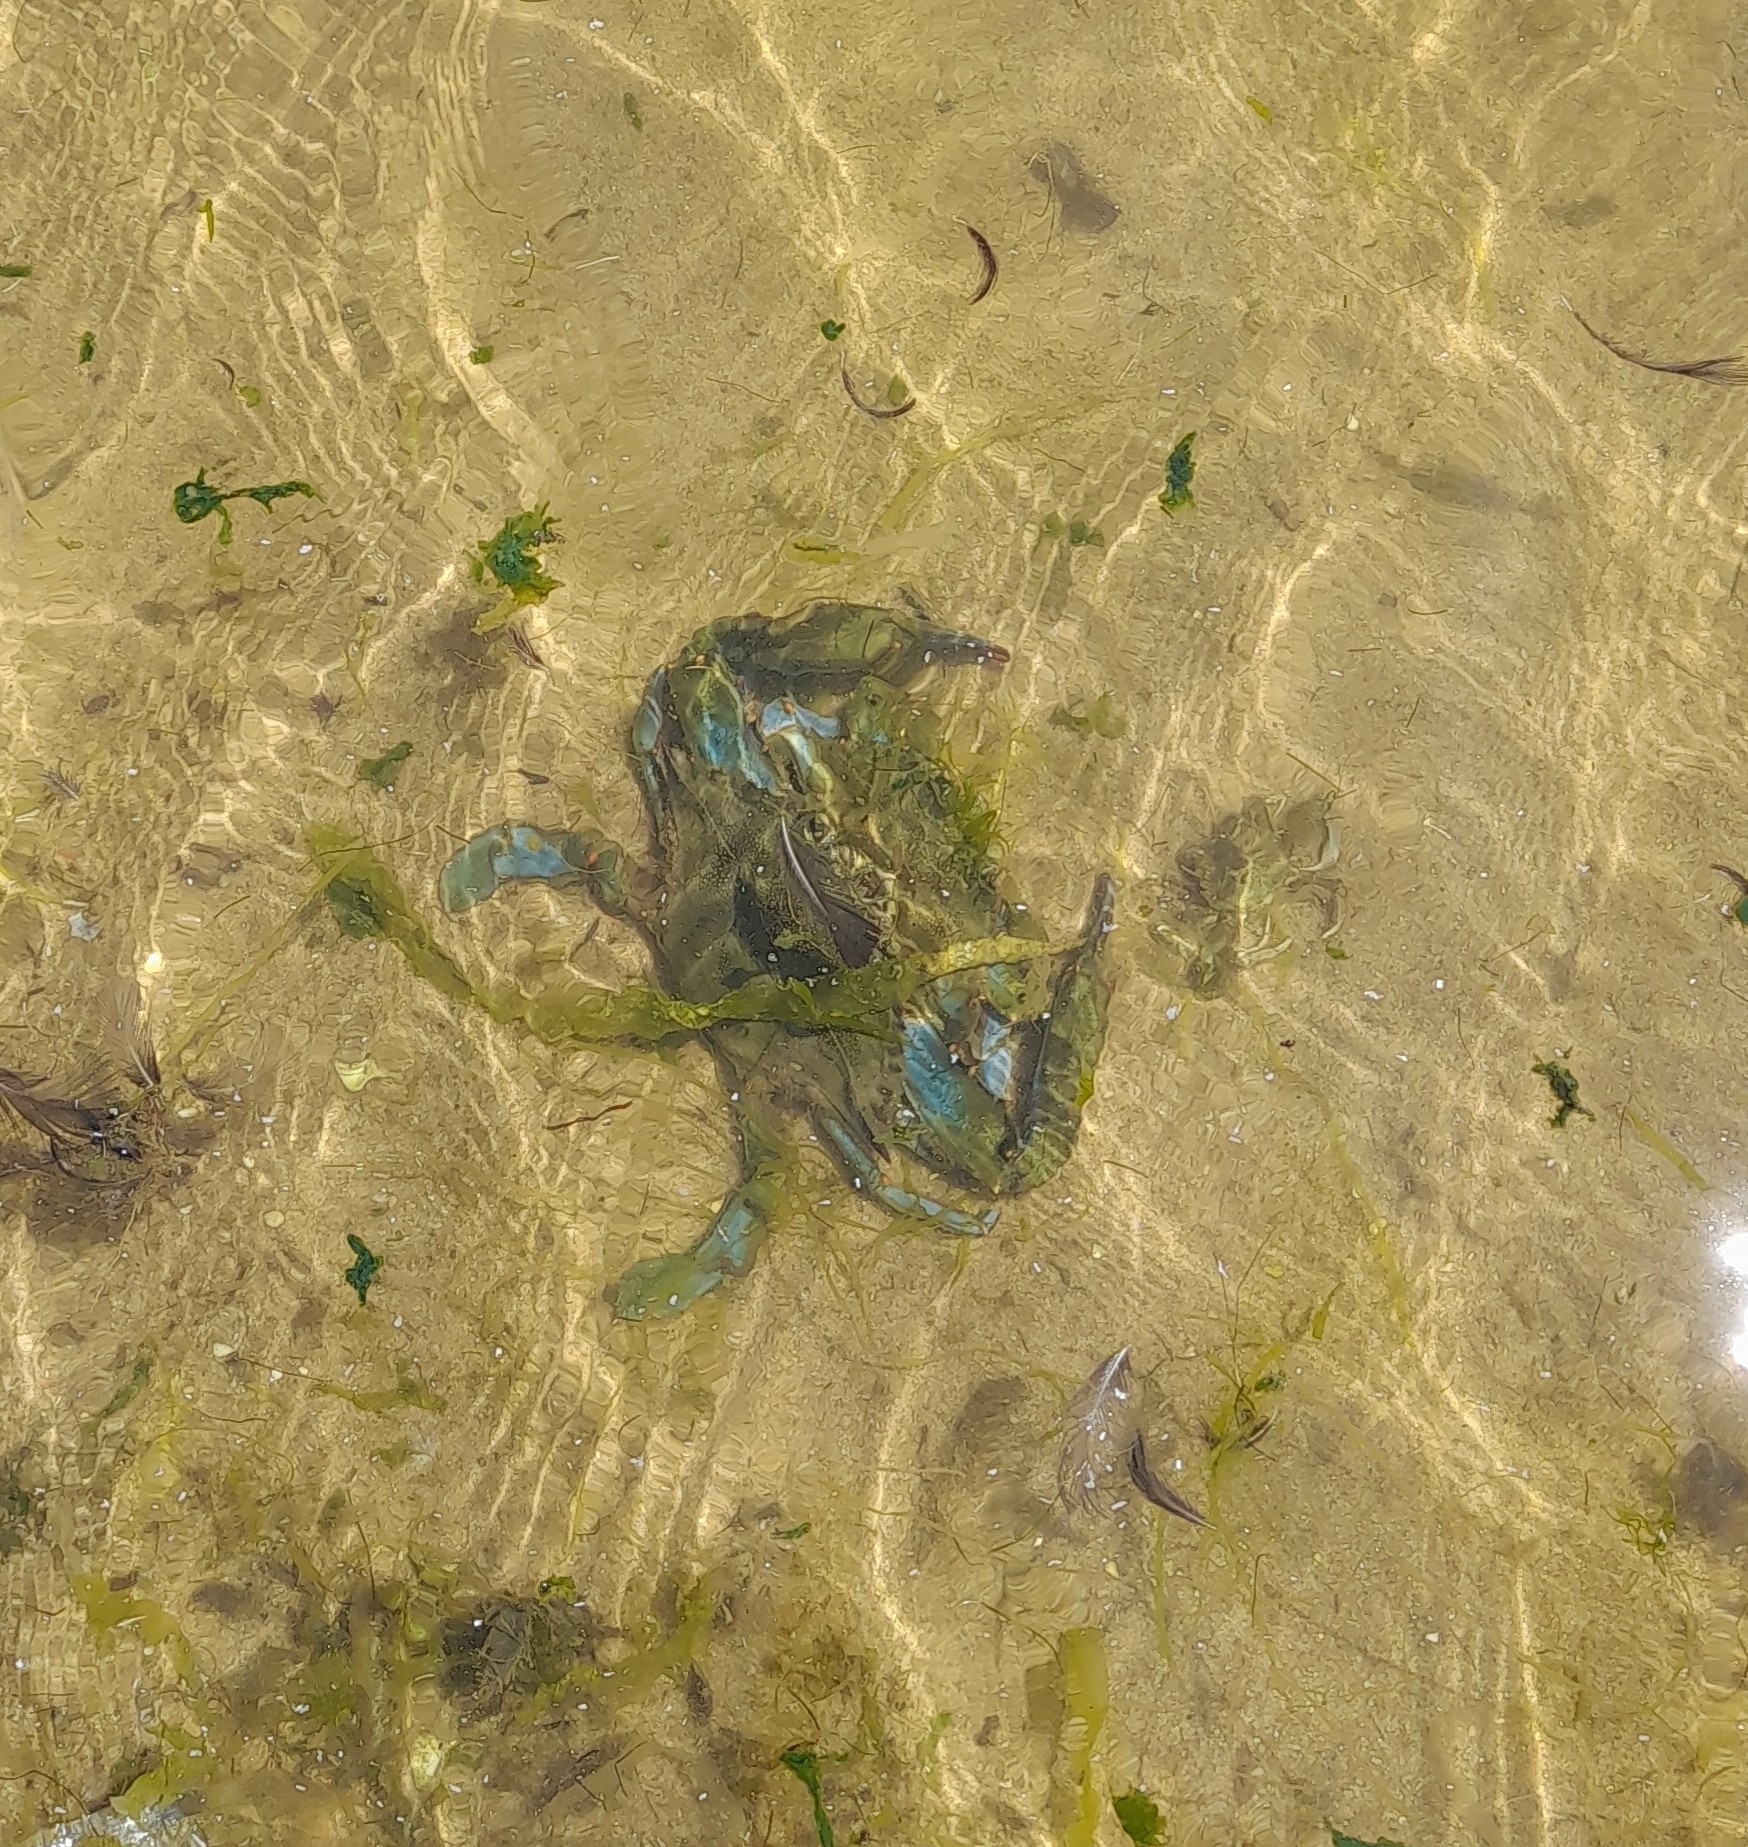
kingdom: Animalia
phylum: Arthropoda
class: Malacostraca
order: Decapoda
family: Portunidae
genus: Callinectes
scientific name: Callinectes sapidus
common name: Blue crab
